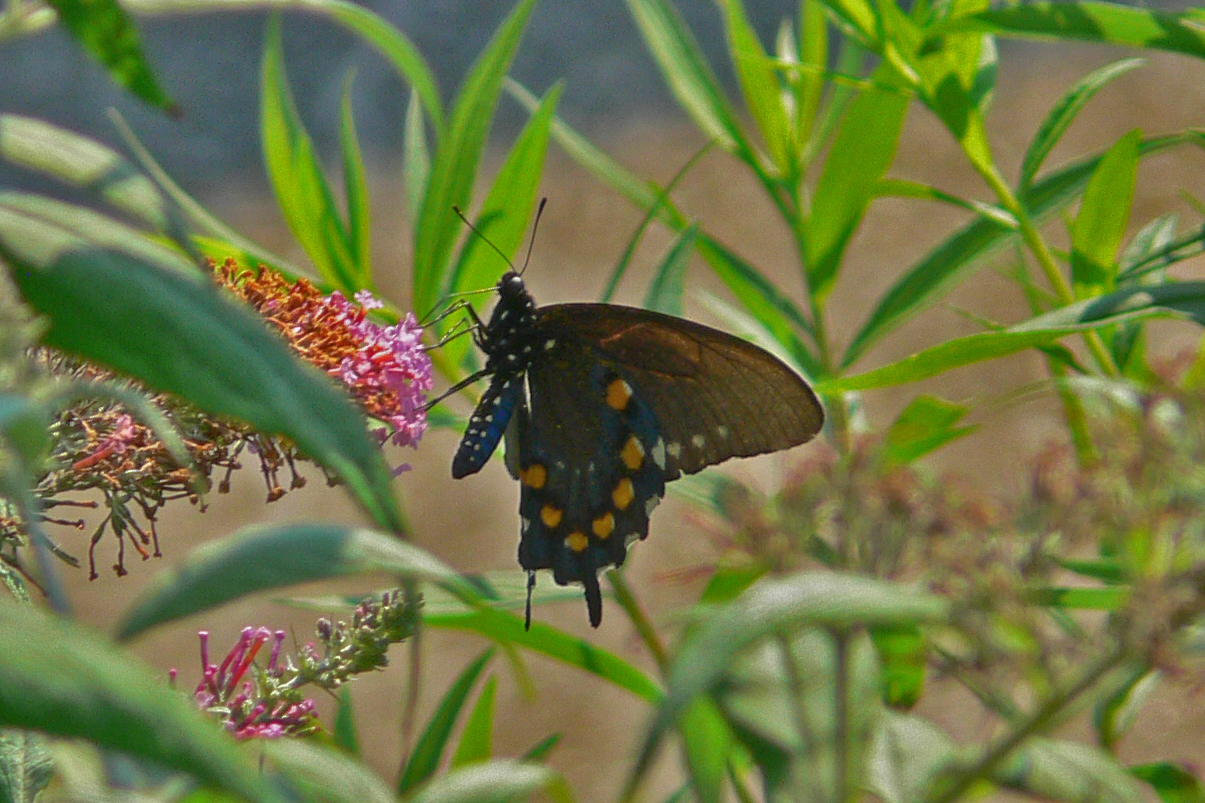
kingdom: Animalia
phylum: Arthropoda
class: Insecta
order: Lepidoptera
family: Papilionidae
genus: Battus
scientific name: Battus philenor
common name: Pipevine swallowtail
